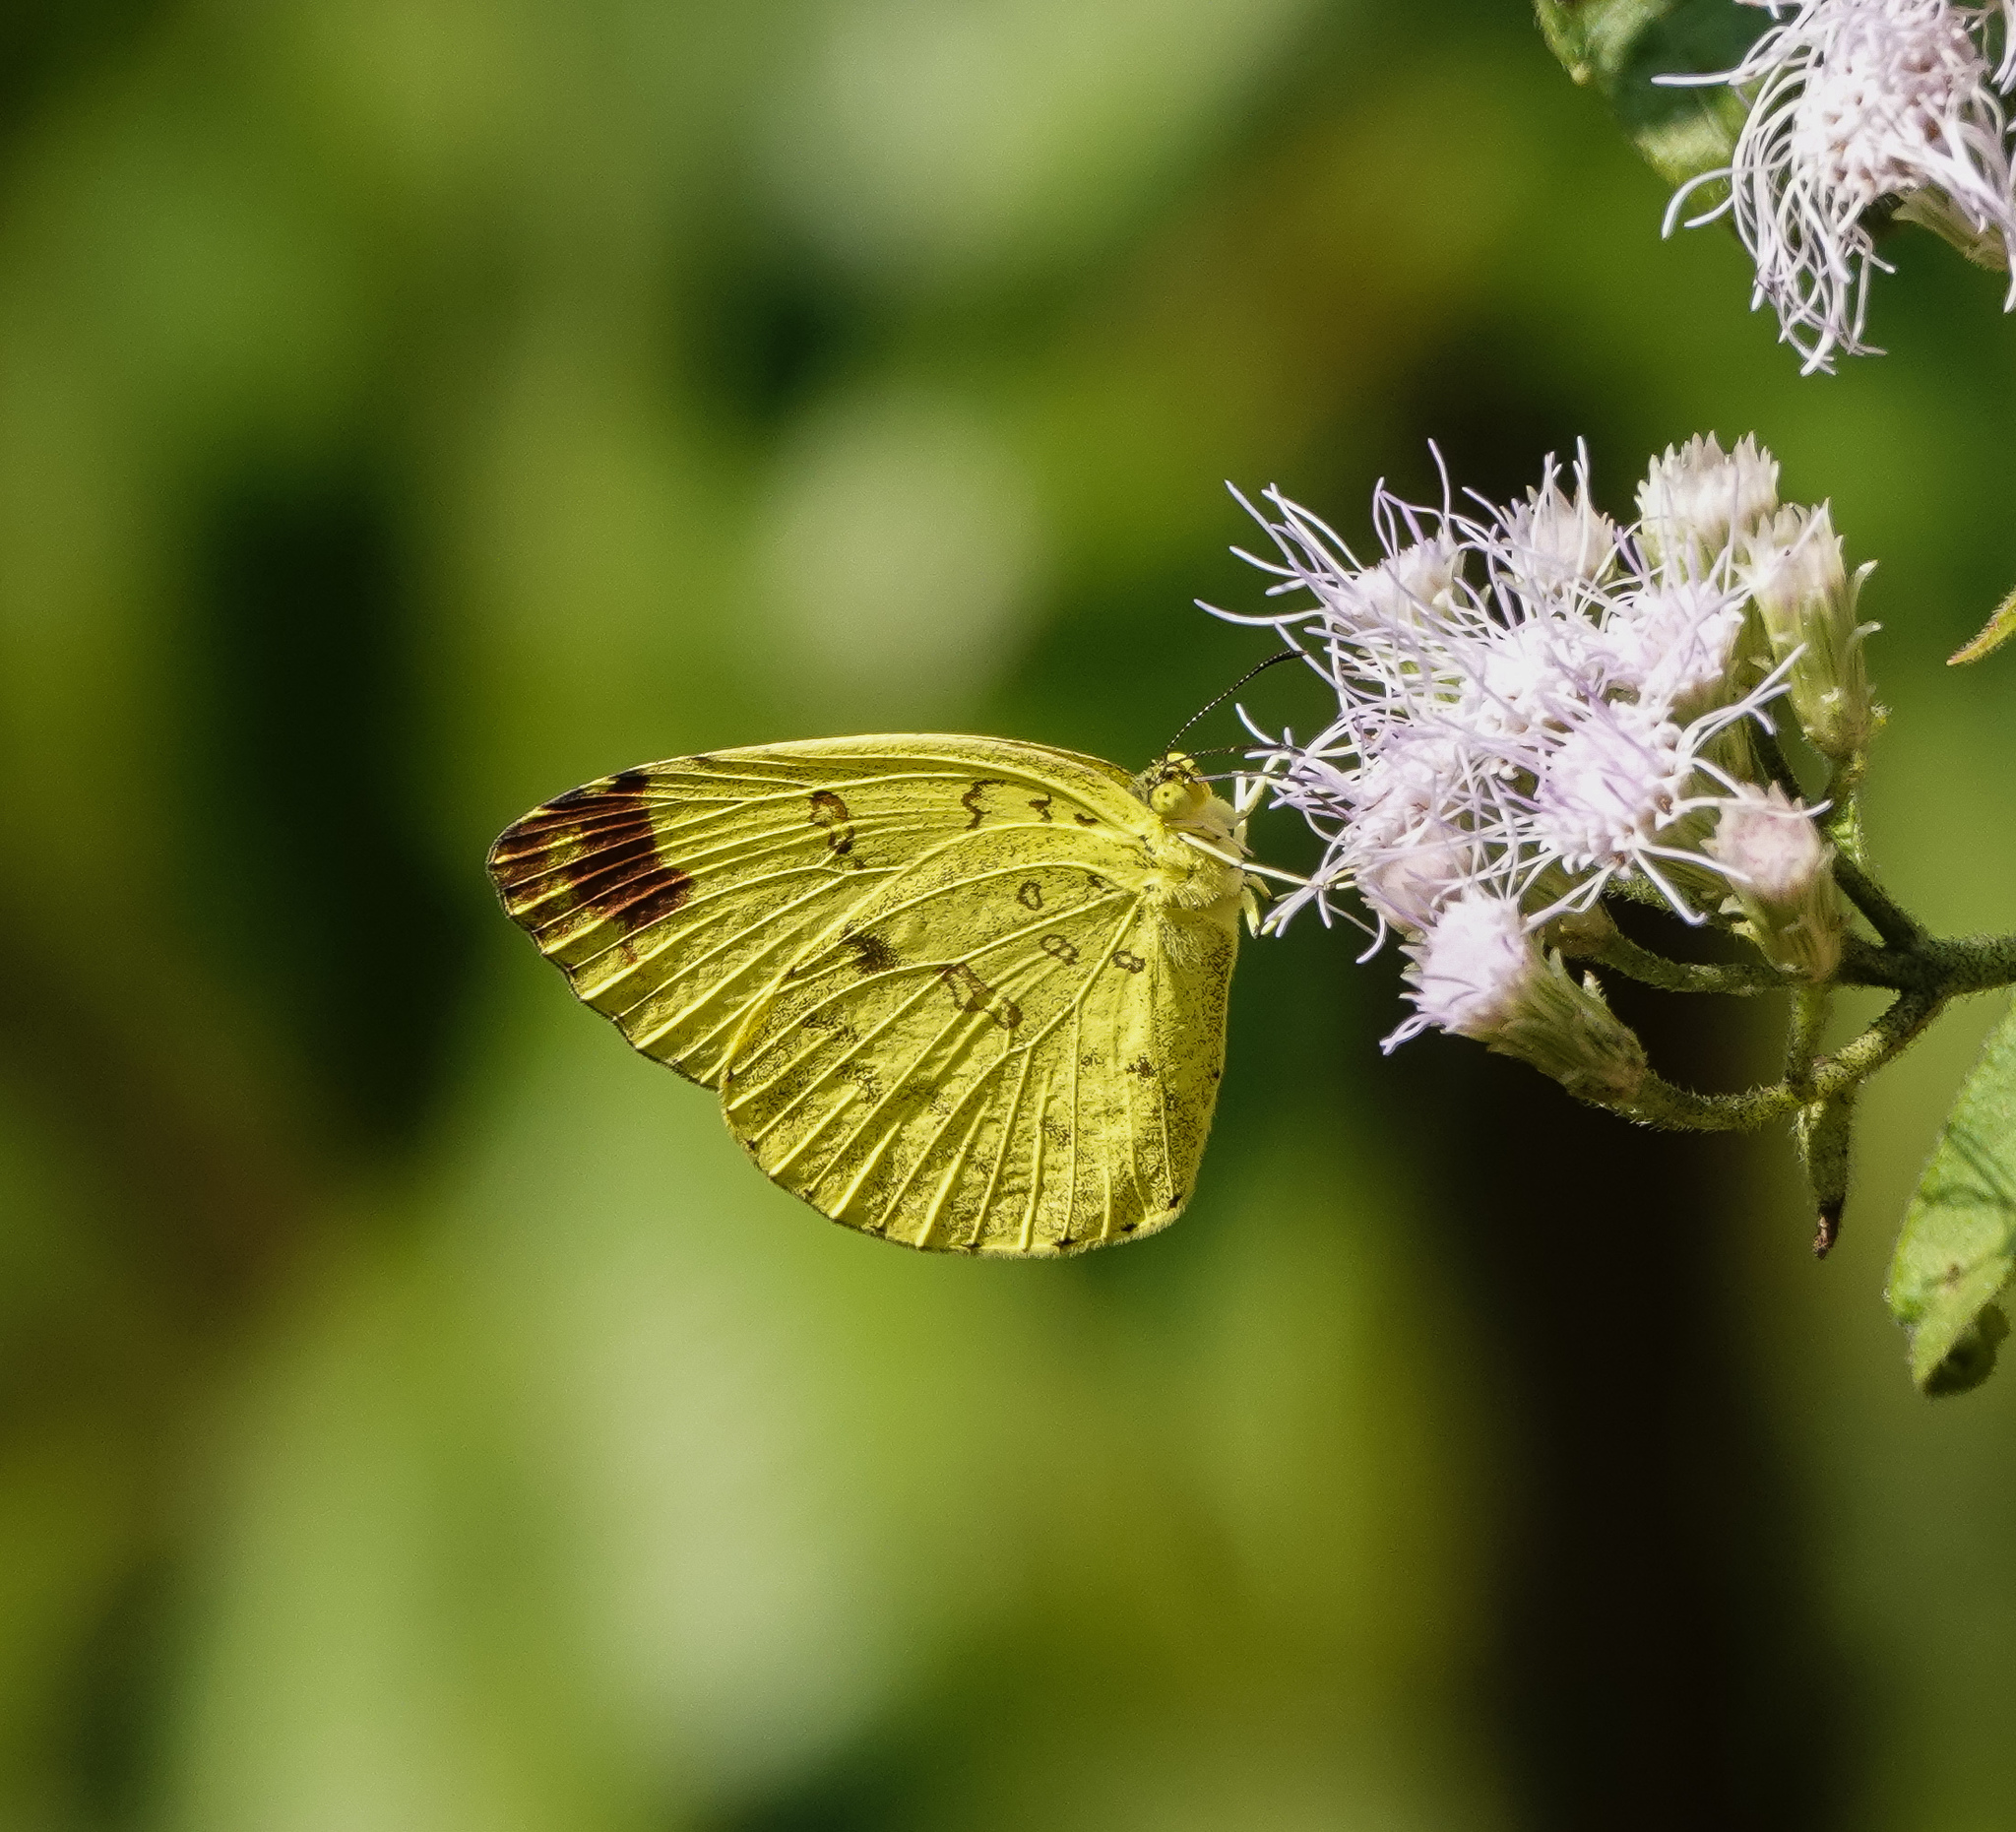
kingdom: Animalia
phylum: Arthropoda
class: Insecta
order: Lepidoptera
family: Pieridae
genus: Eurema
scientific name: Eurema blanda
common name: Three-spot grass yellow
